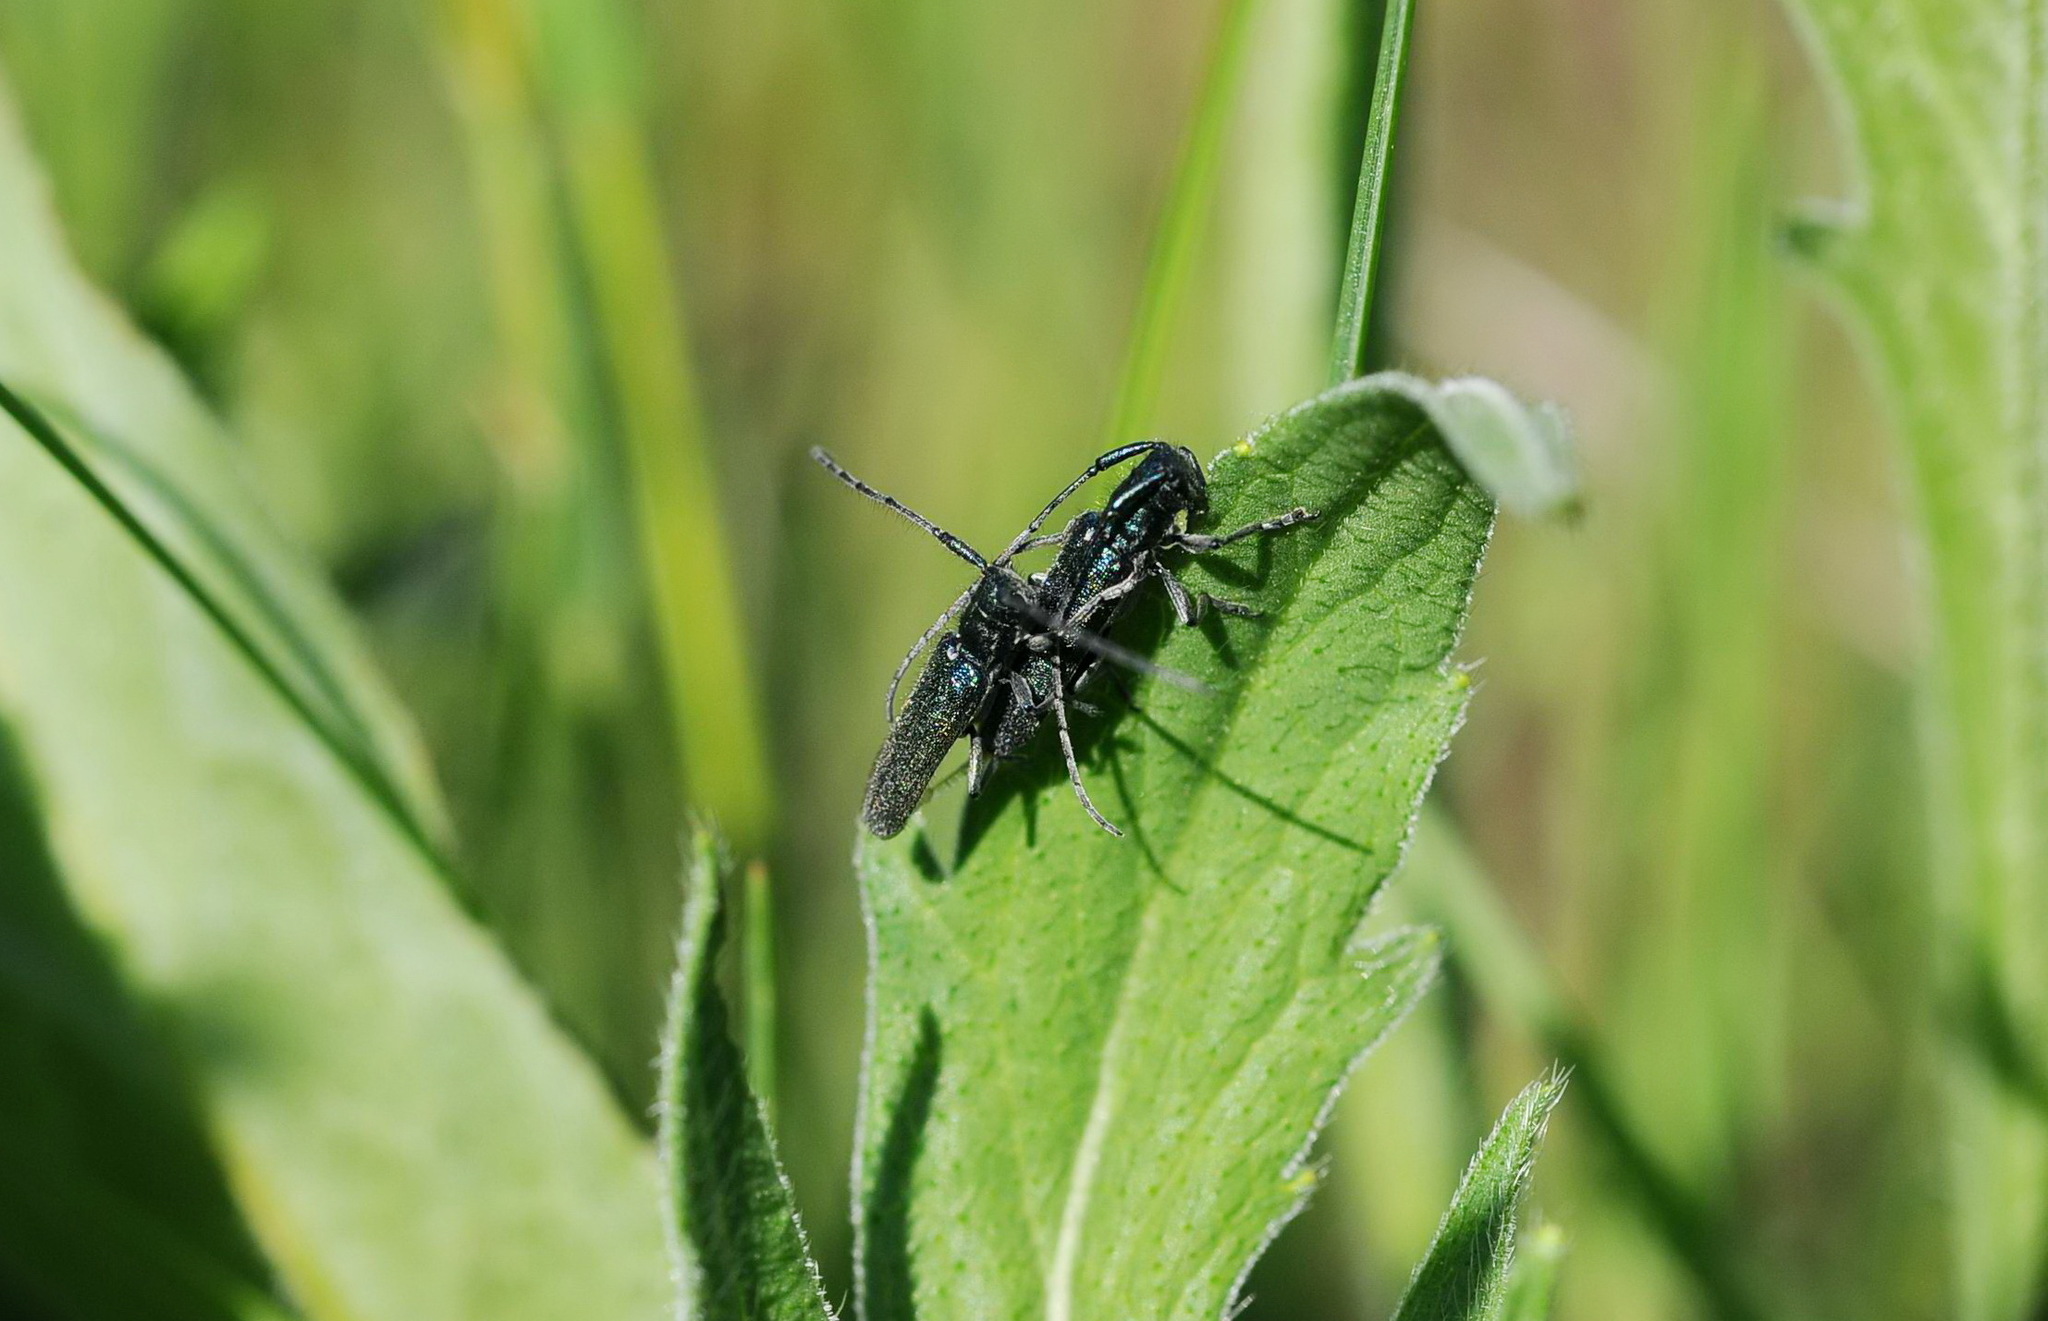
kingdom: Animalia
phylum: Arthropoda
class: Insecta
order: Coleoptera
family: Cerambycidae
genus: Agapanthia
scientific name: Agapanthia intermedia
